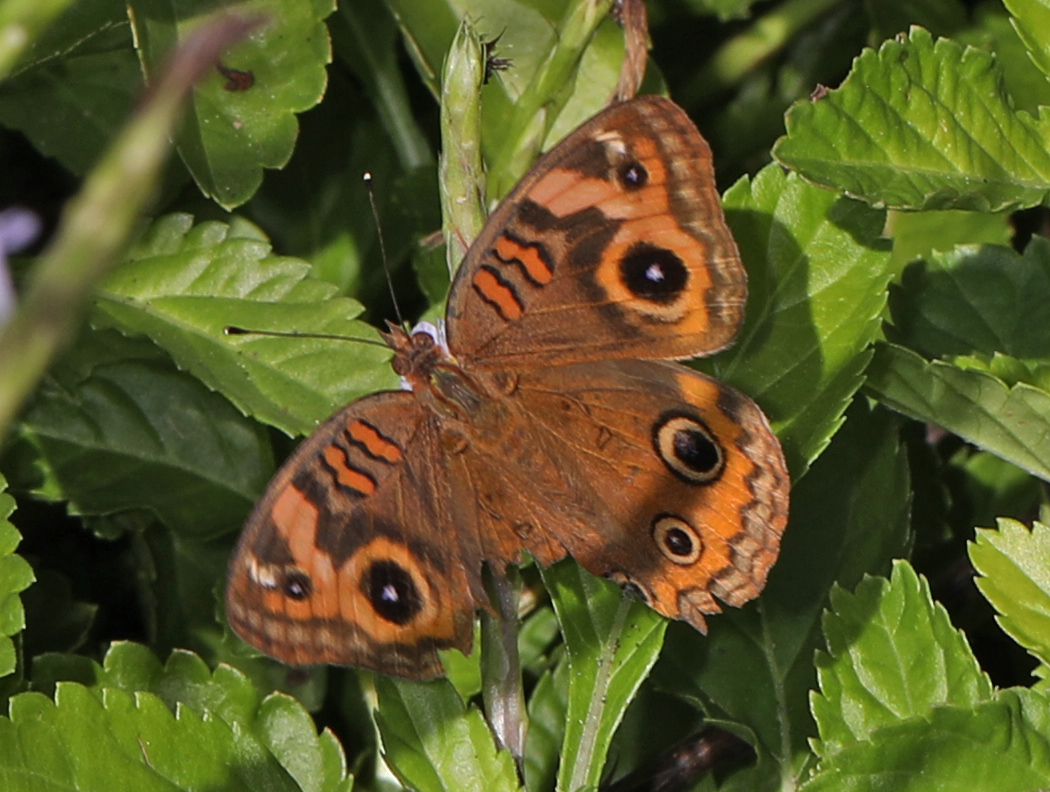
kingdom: Animalia
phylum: Arthropoda
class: Insecta
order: Lepidoptera
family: Nymphalidae
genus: Junonia
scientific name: Junonia neildi
